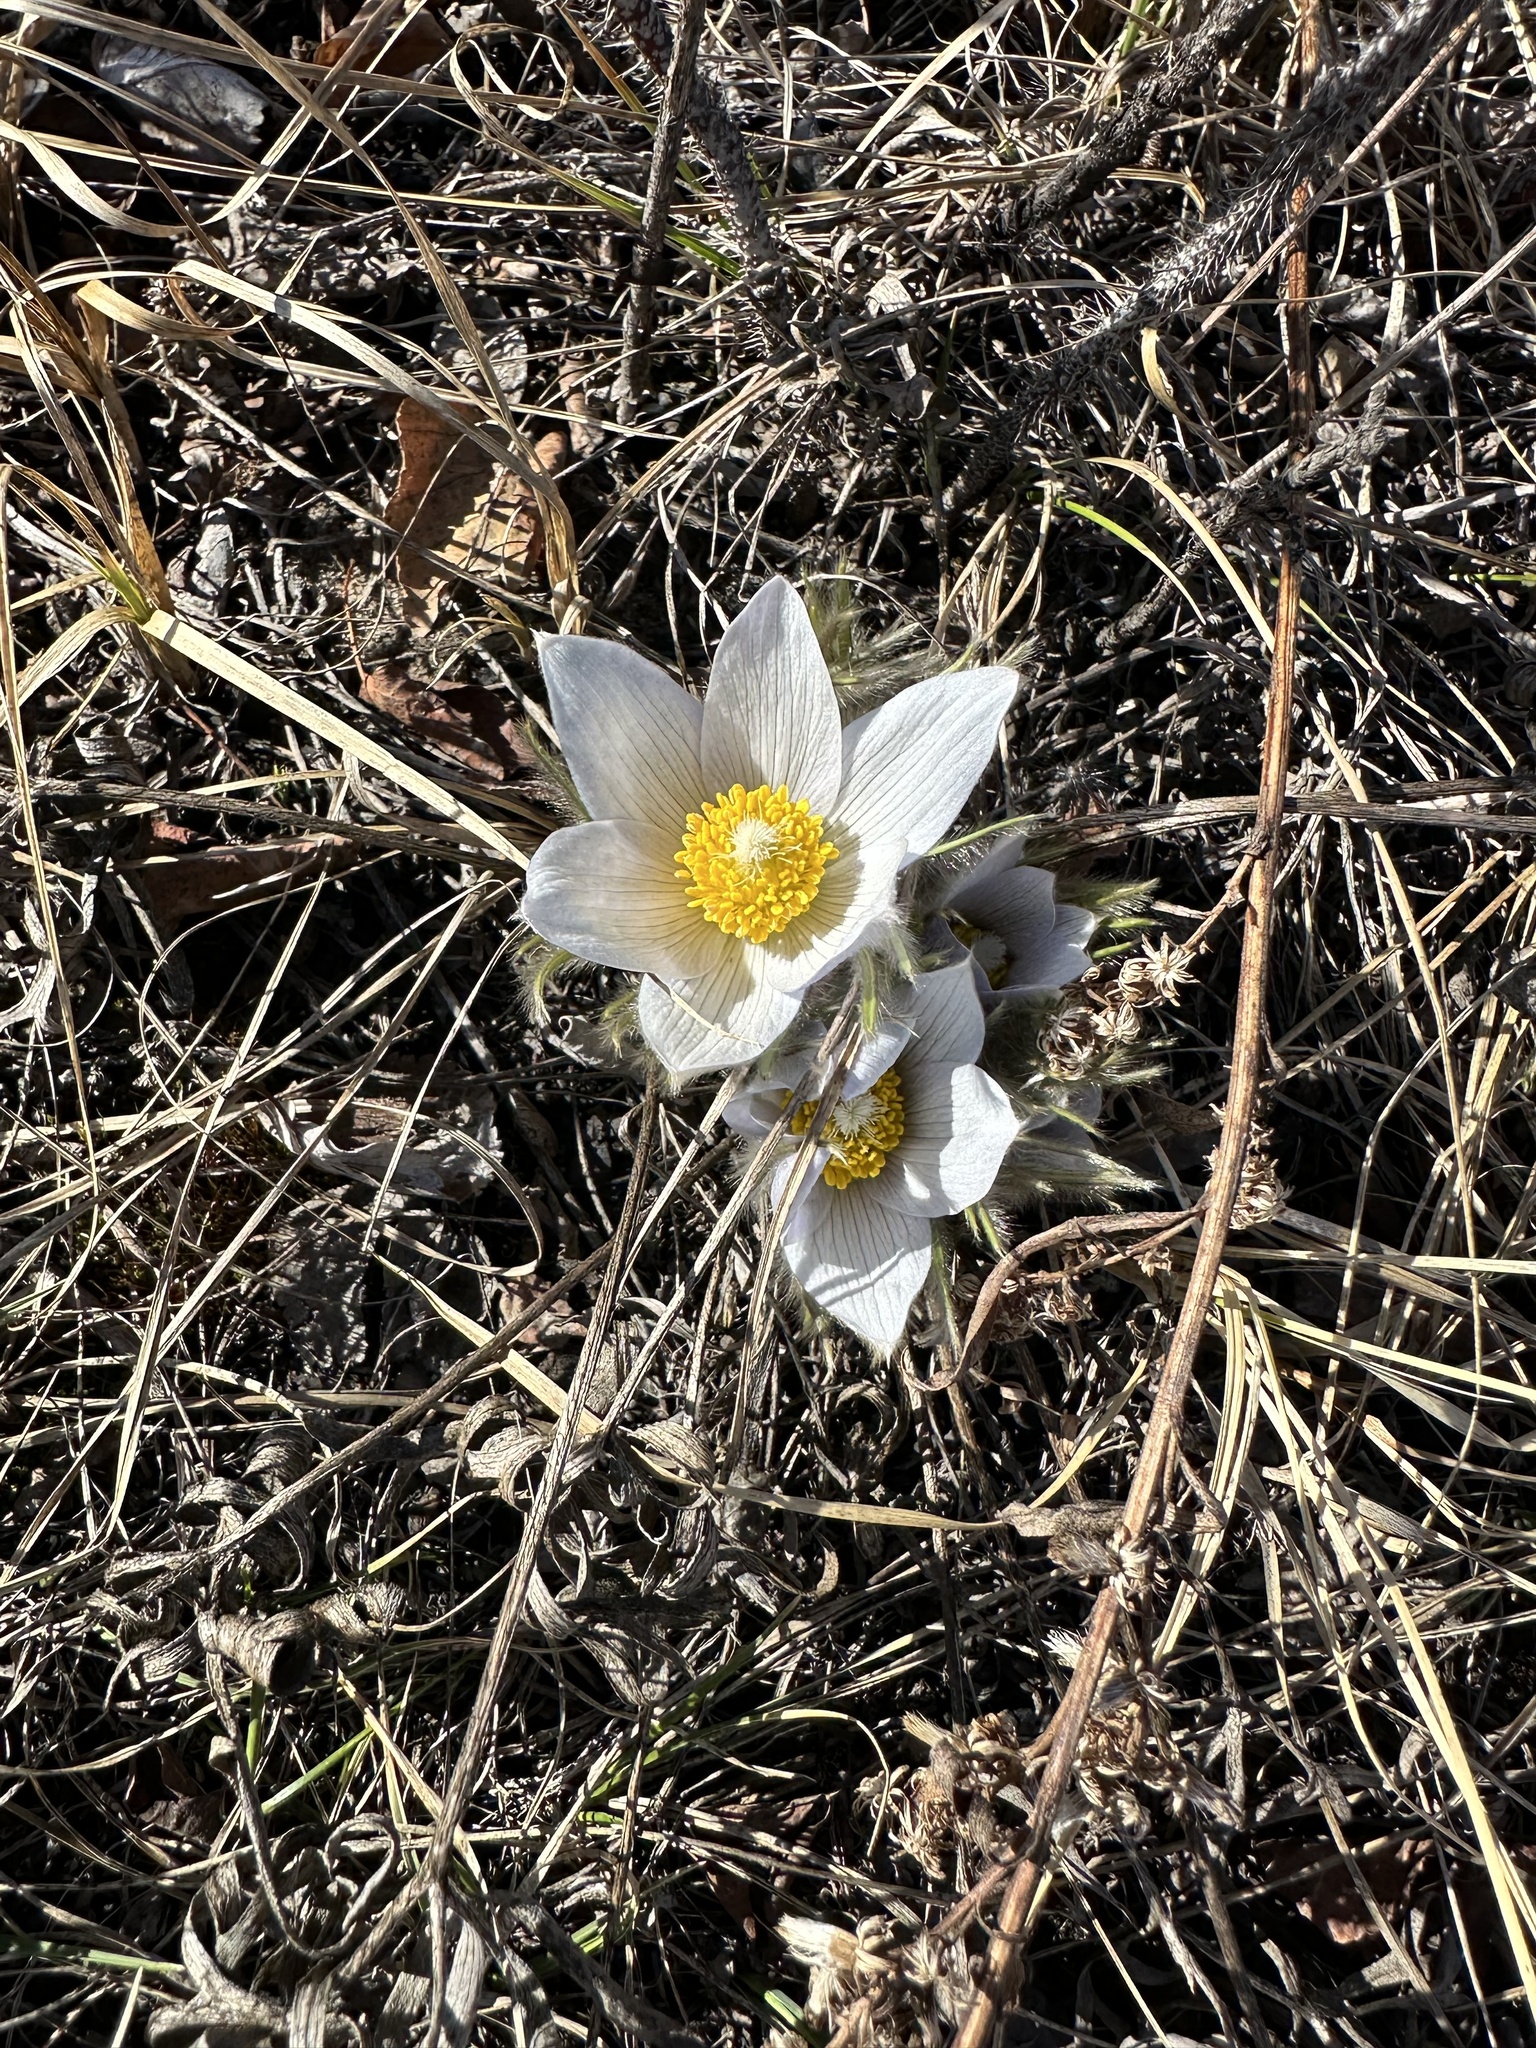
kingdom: Plantae
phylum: Tracheophyta
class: Magnoliopsida
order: Ranunculales
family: Ranunculaceae
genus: Pulsatilla
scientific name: Pulsatilla nuttalliana
